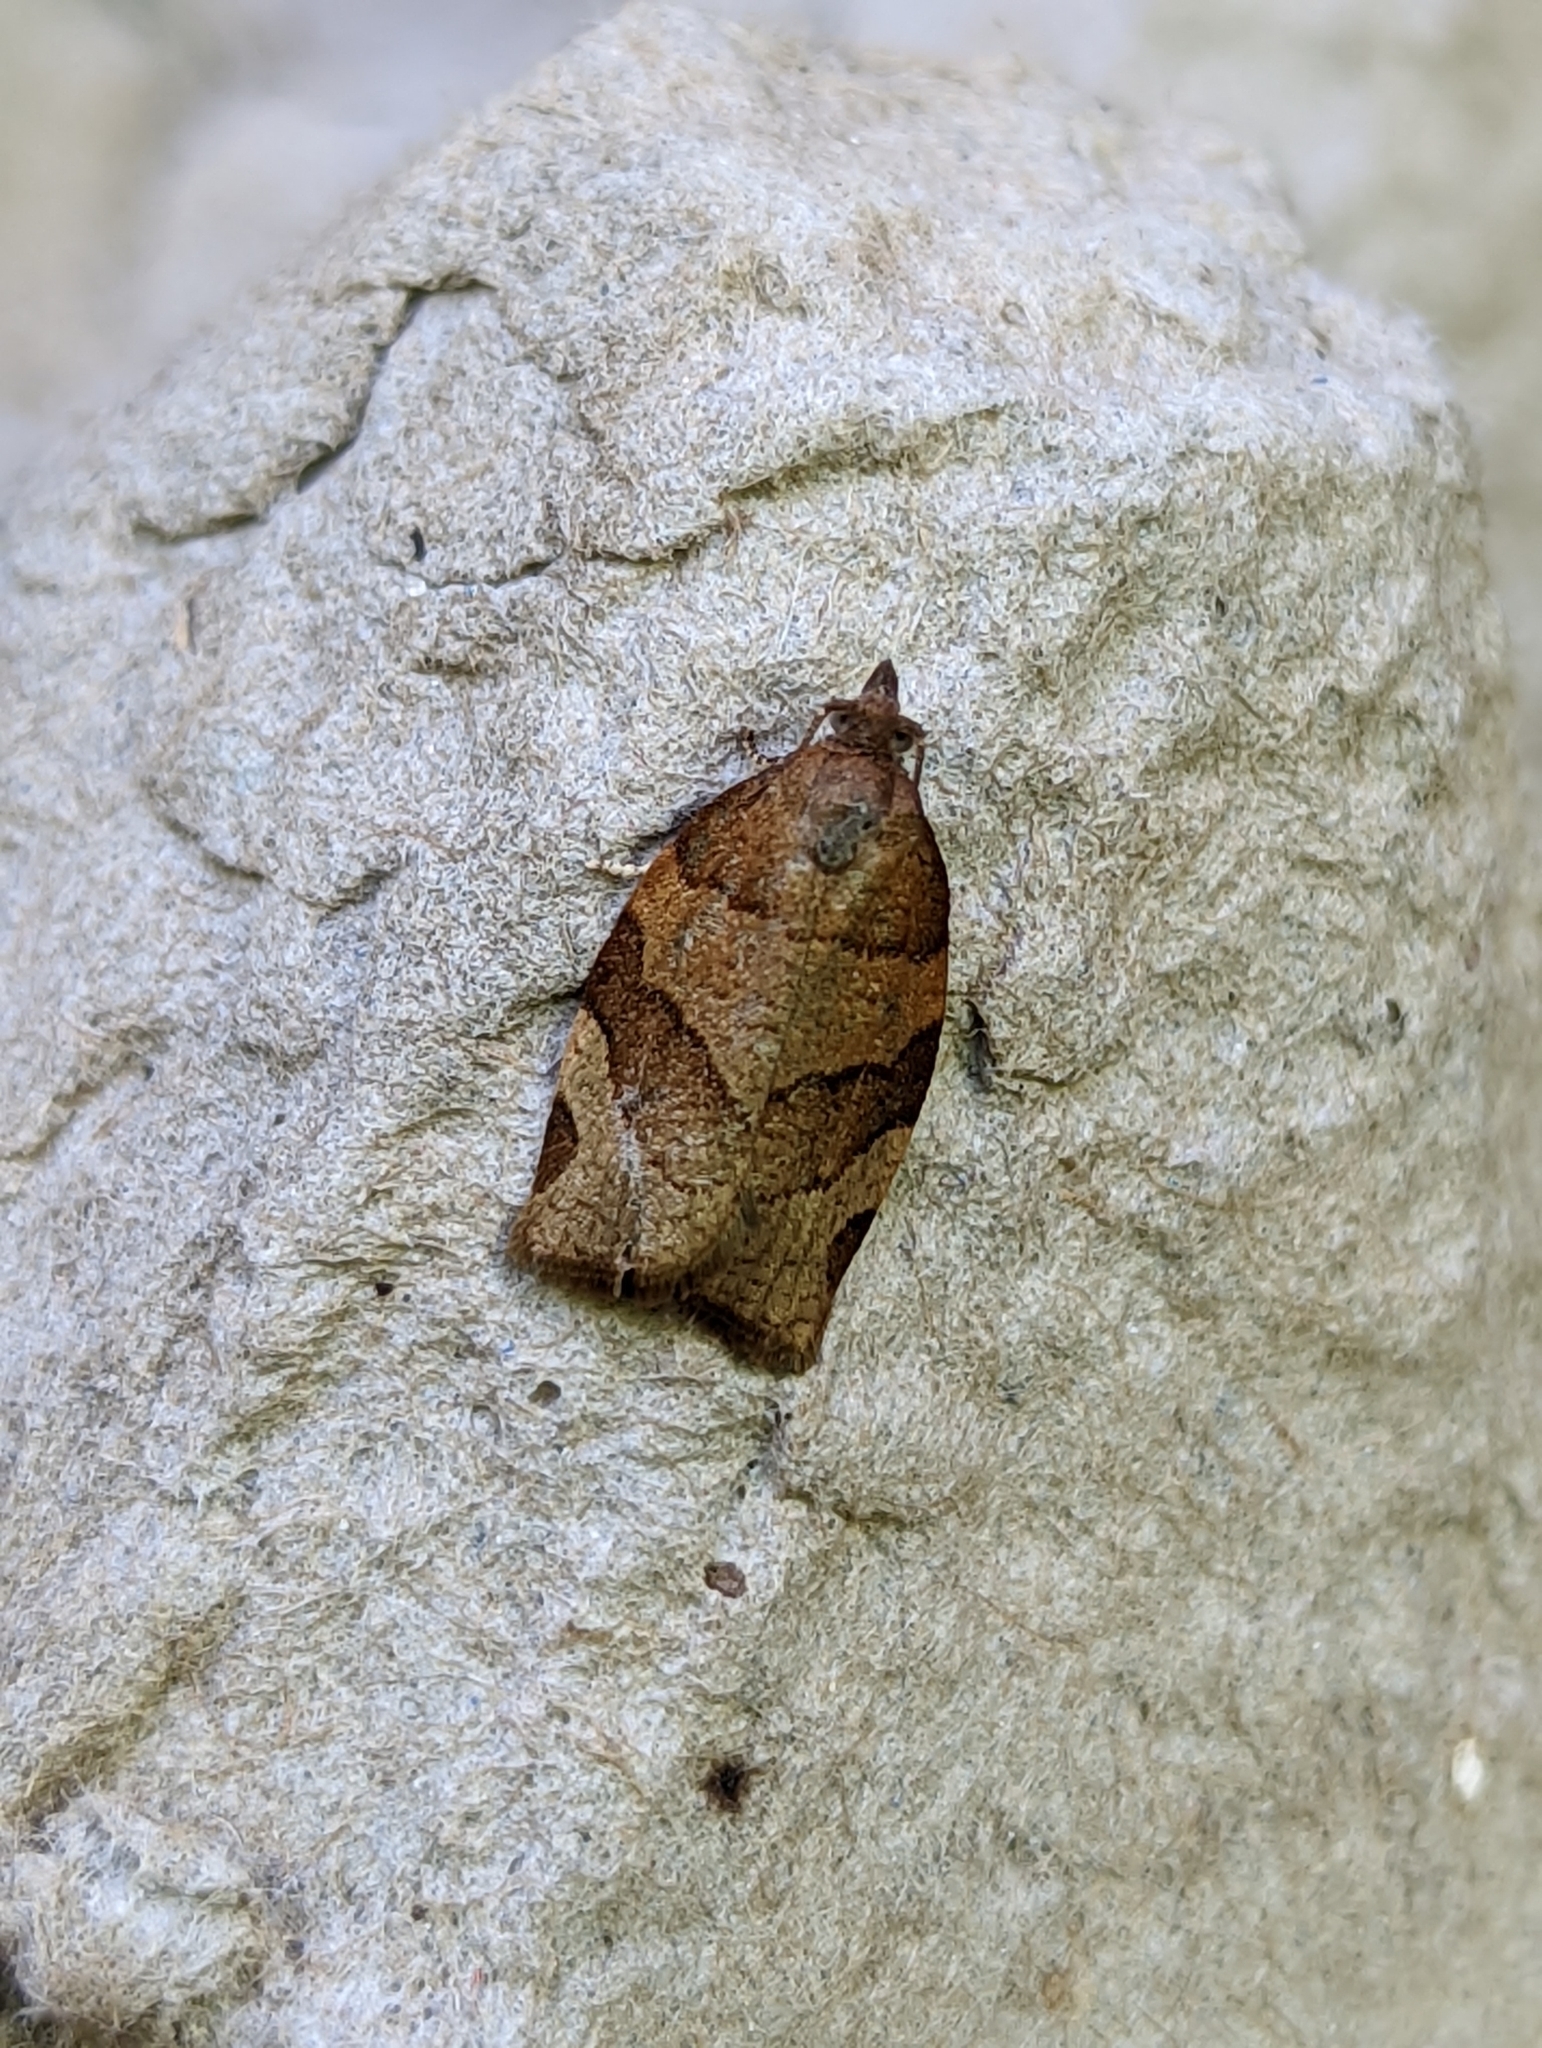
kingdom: Animalia
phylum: Arthropoda
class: Insecta
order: Lepidoptera
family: Tortricidae
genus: Pandemis
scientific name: Pandemis cerasana
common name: Barred fruit-tree tortrix
